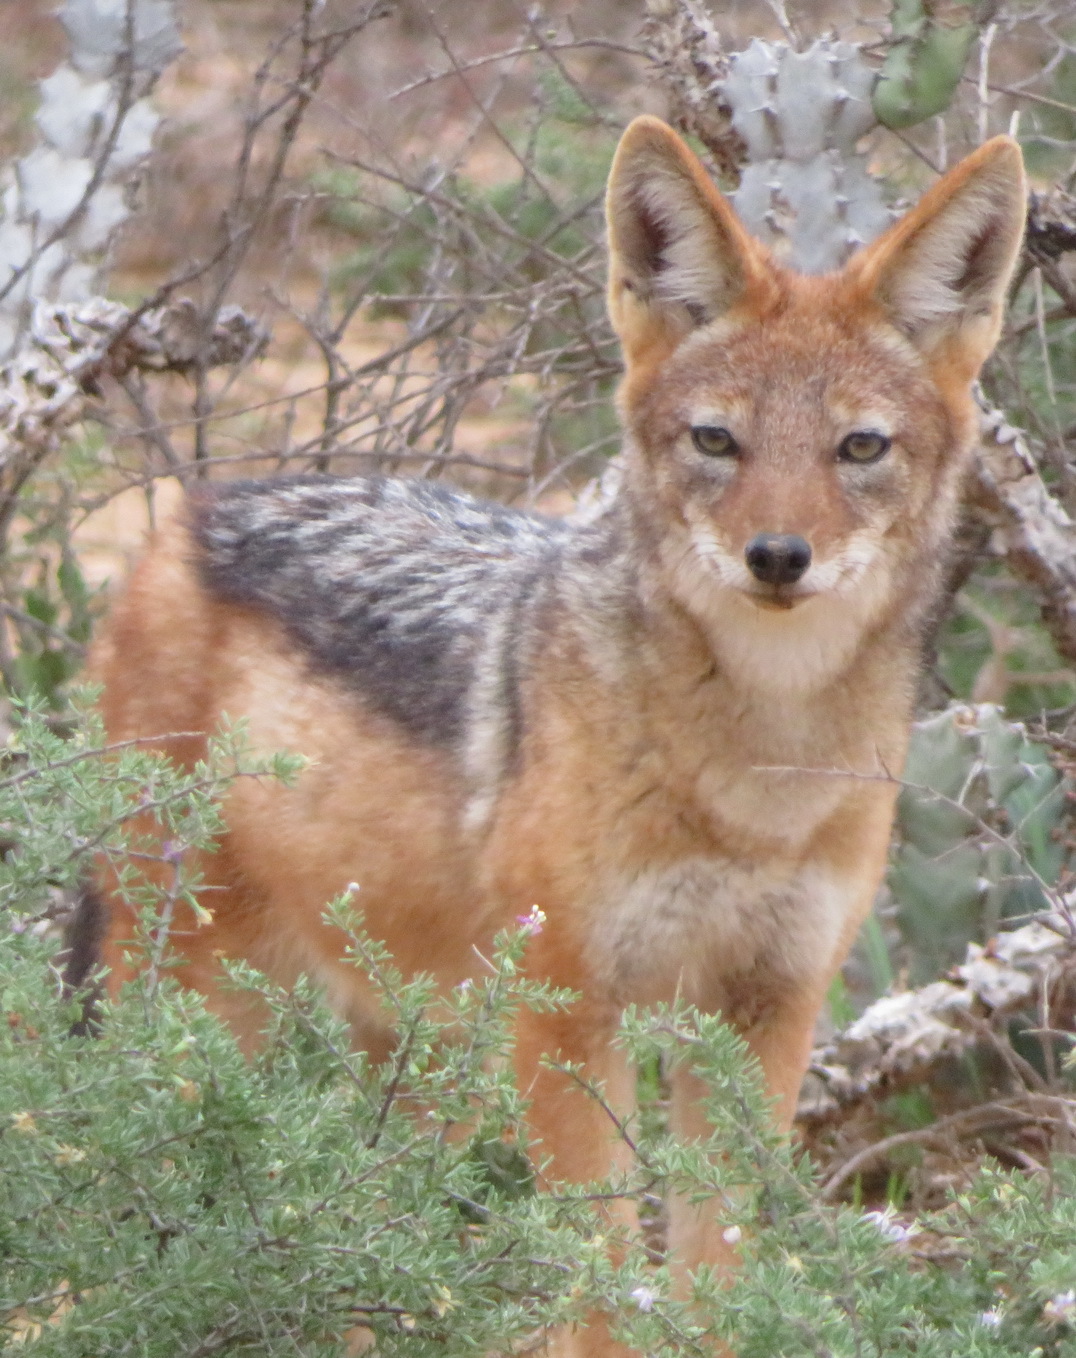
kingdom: Animalia
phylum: Chordata
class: Mammalia
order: Carnivora
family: Canidae
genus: Lupulella
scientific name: Lupulella
